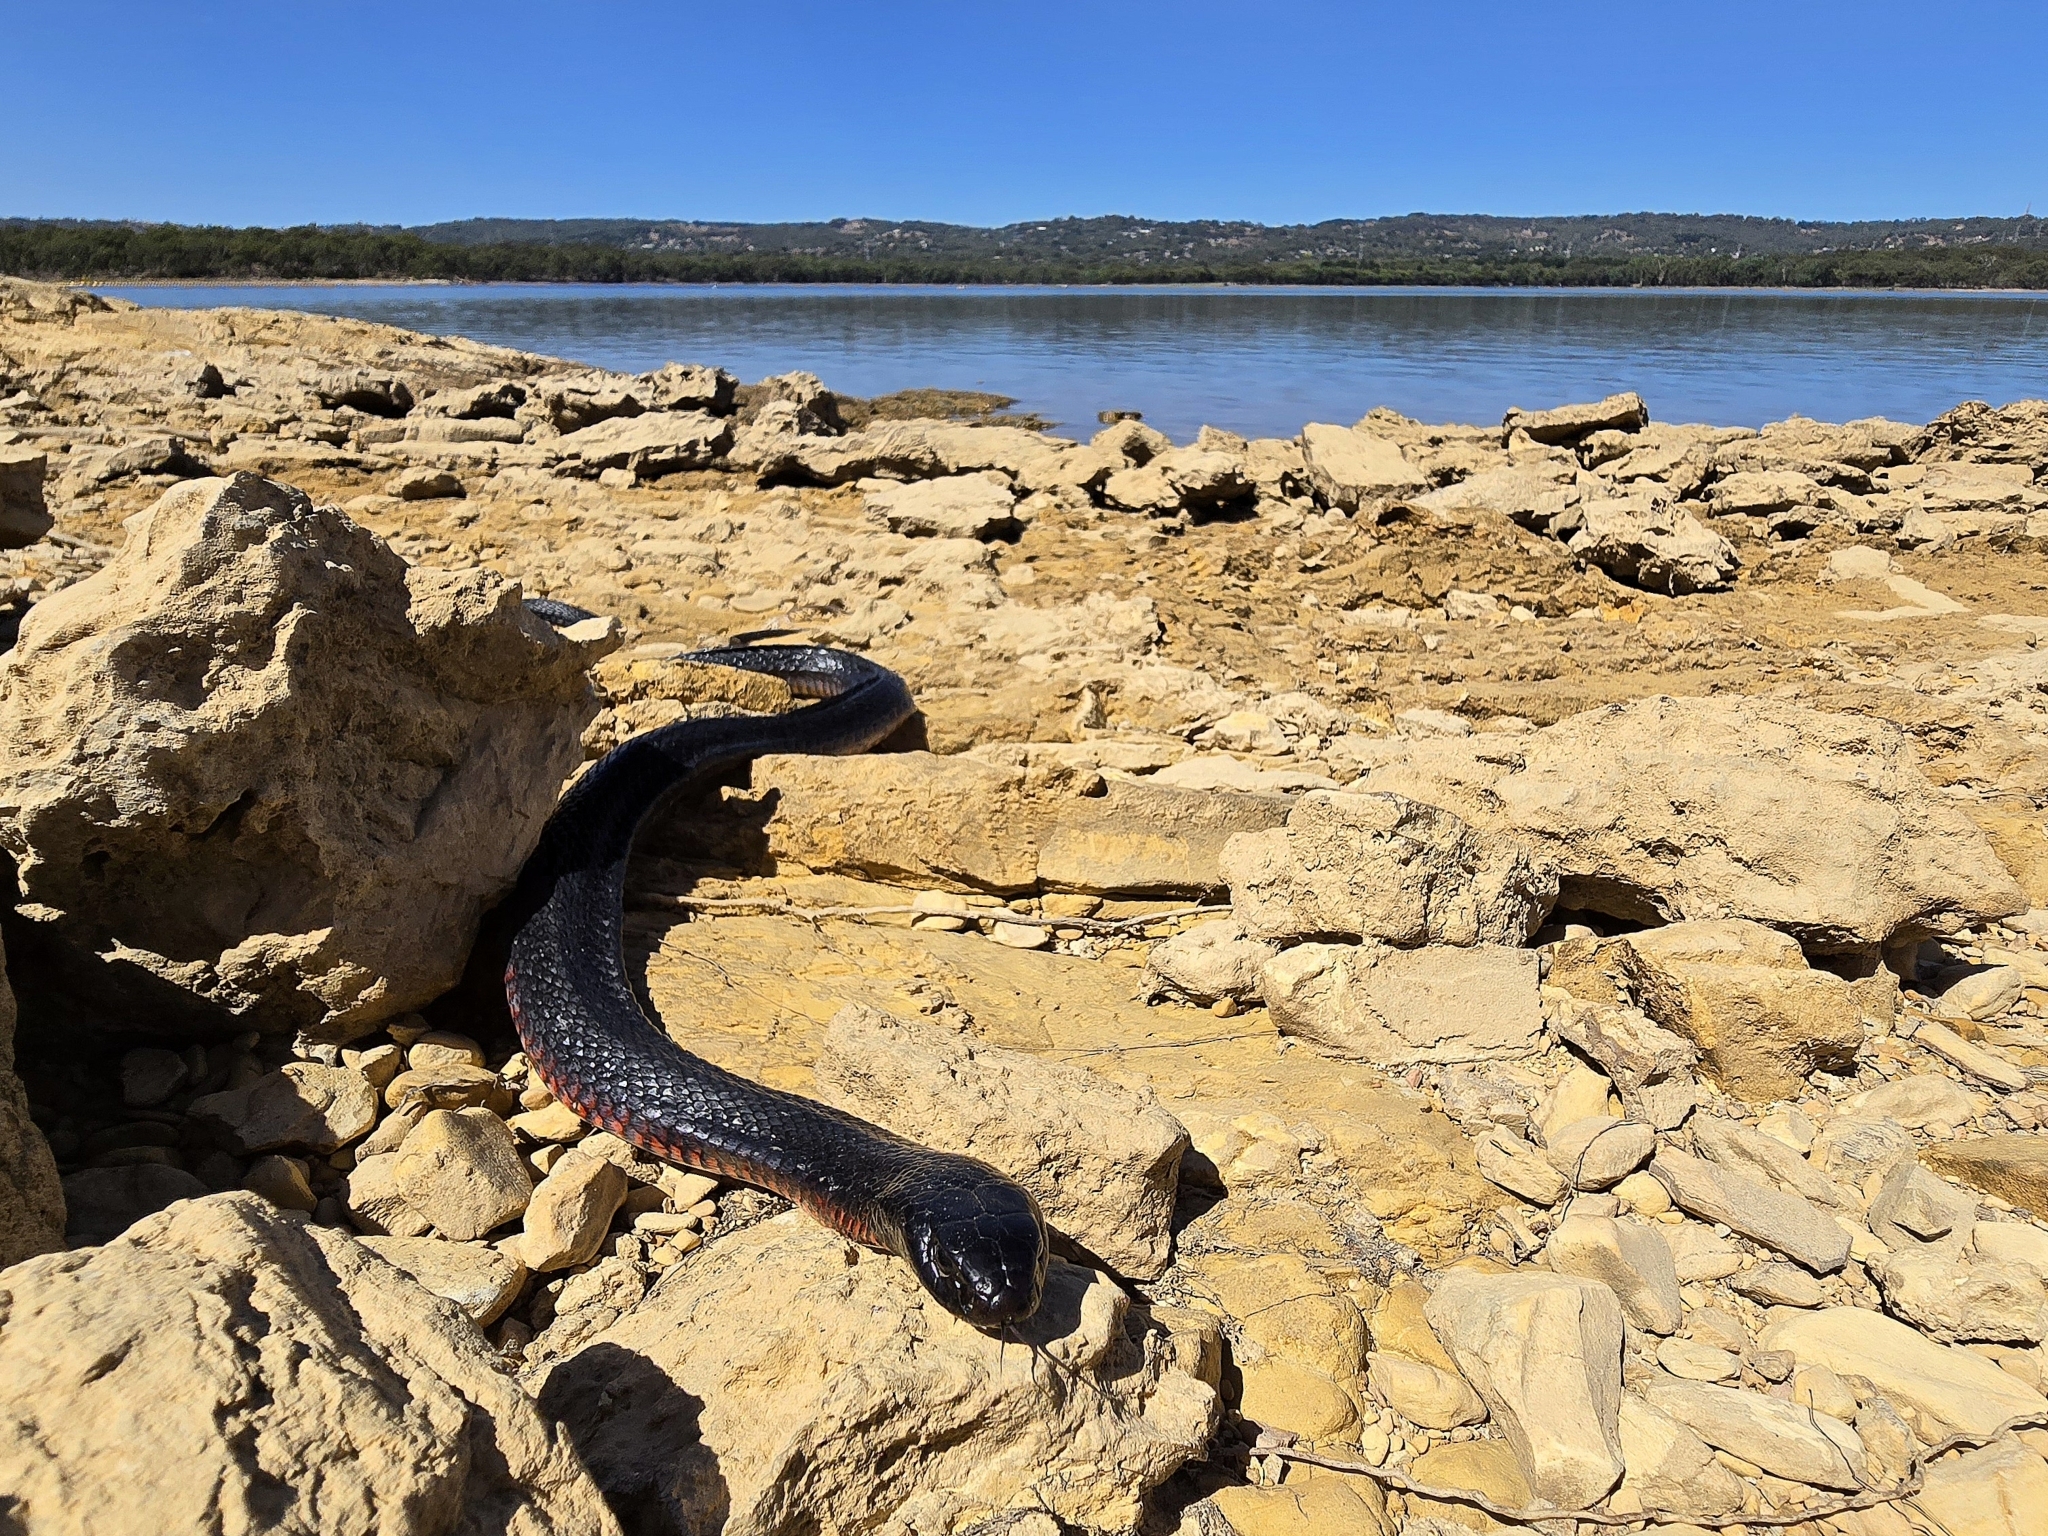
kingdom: Animalia
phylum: Chordata
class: Squamata
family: Elapidae
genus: Pseudechis
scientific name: Pseudechis porphyriacus
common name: Australian black snake
